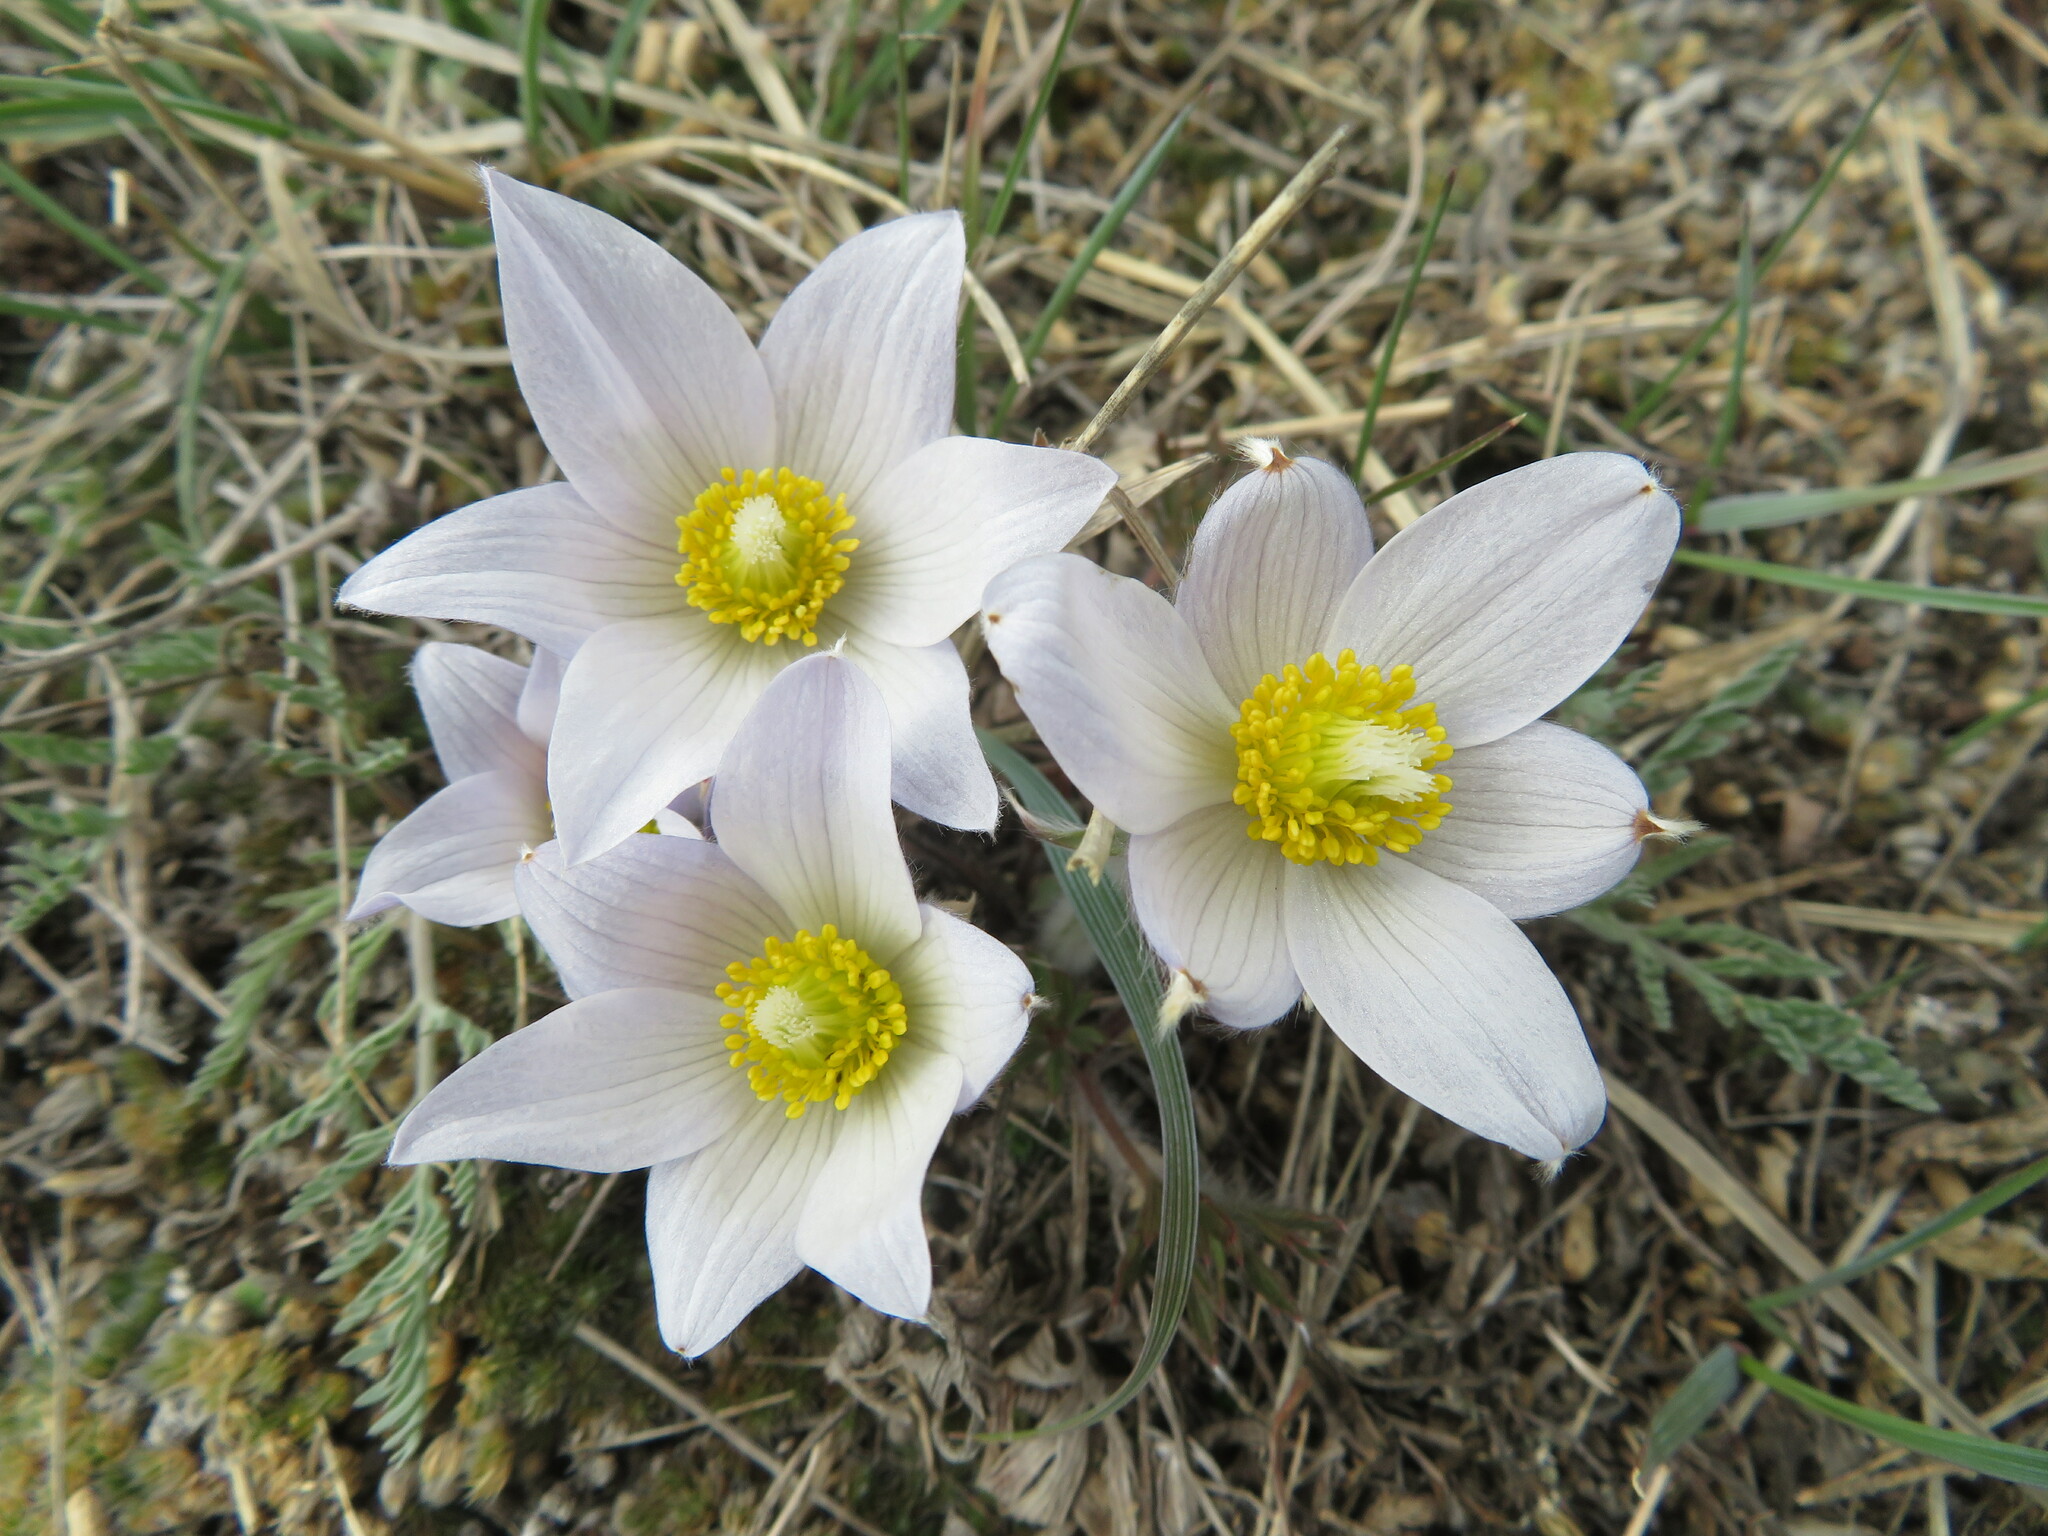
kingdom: Plantae
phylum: Tracheophyta
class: Magnoliopsida
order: Ranunculales
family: Ranunculaceae
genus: Pulsatilla
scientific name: Pulsatilla nuttalliana
